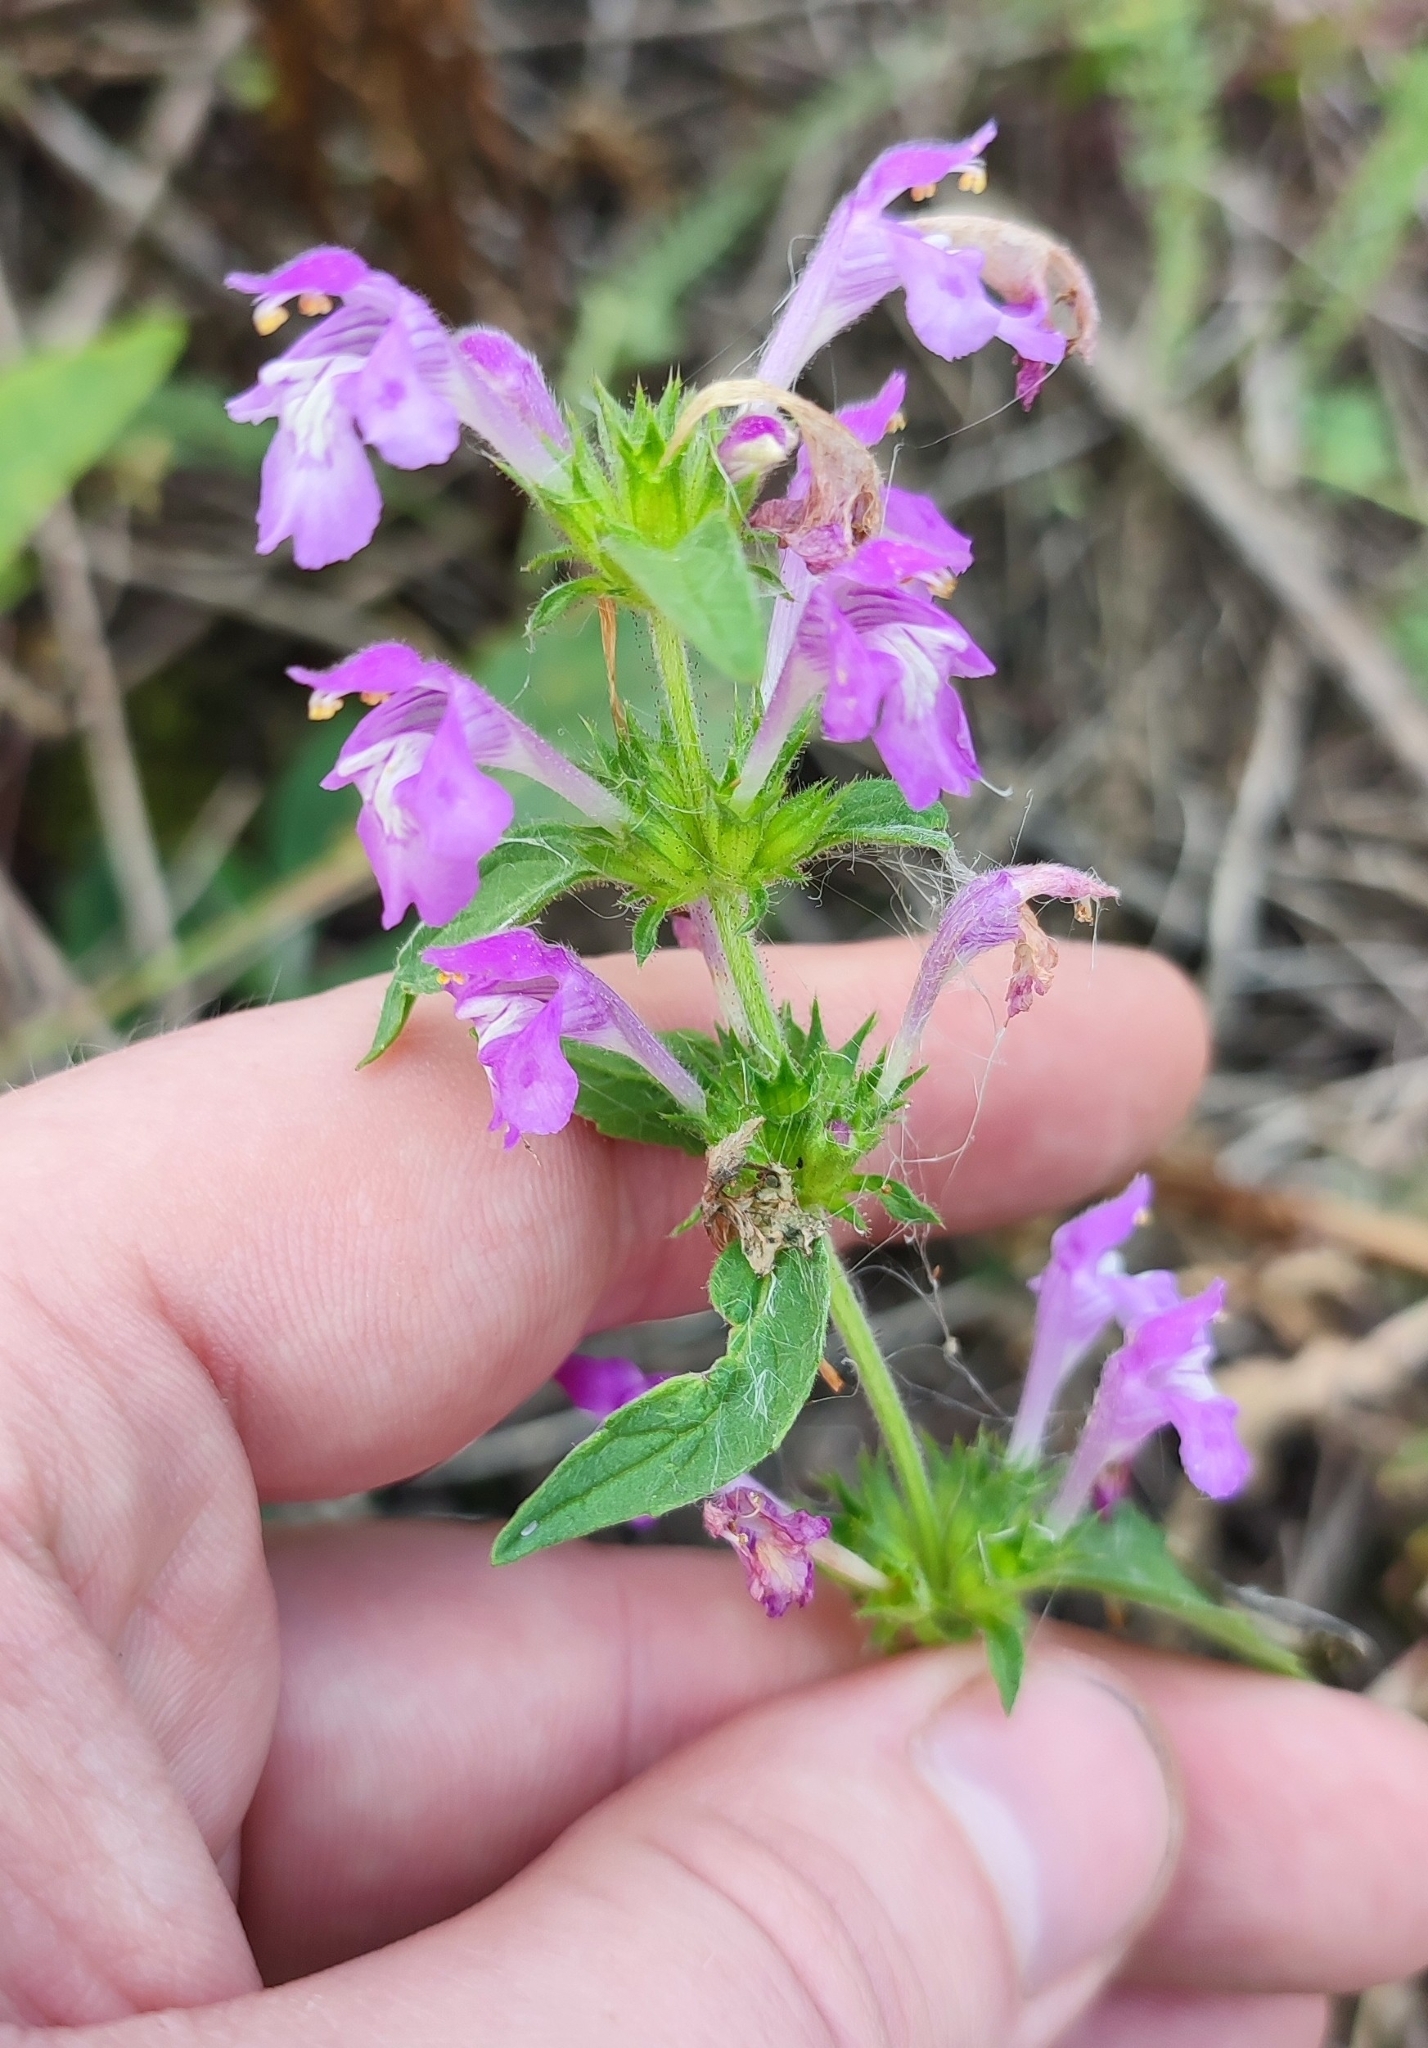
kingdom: Plantae
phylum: Tracheophyta
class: Magnoliopsida
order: Lamiales
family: Lamiaceae
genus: Galeopsis
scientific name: Galeopsis ladanum
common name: Broad-leaved hemp-nettle
